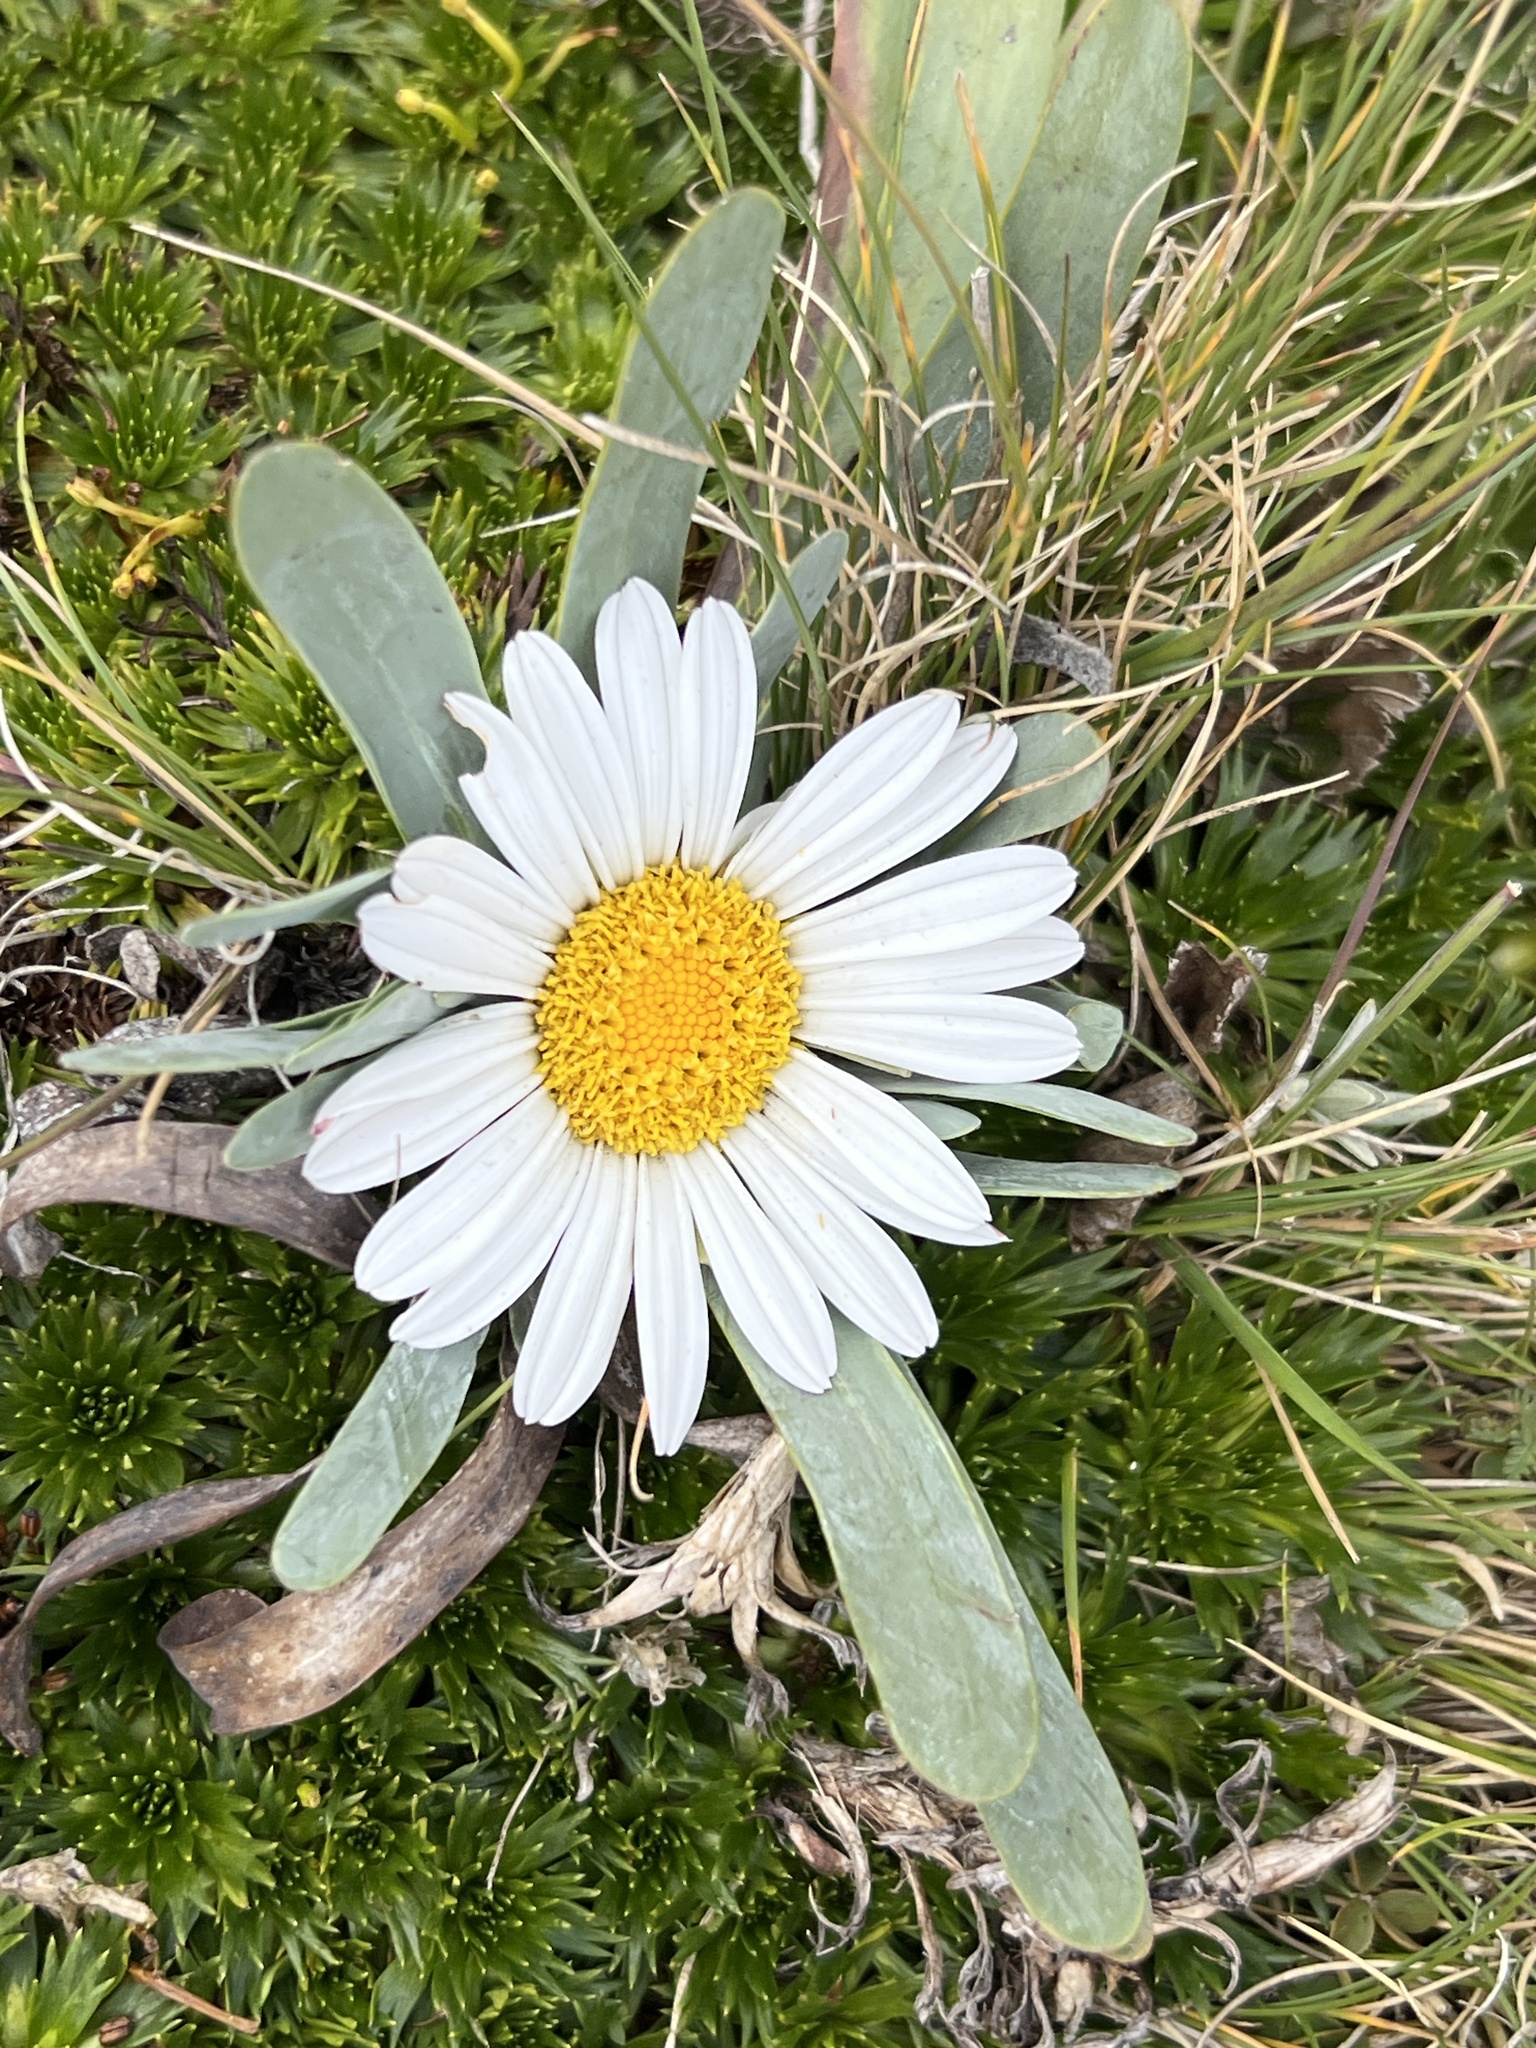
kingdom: Plantae
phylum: Tracheophyta
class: Magnoliopsida
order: Asterales
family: Asteraceae
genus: Rockhausenia
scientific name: Rockhausenia nubigena
